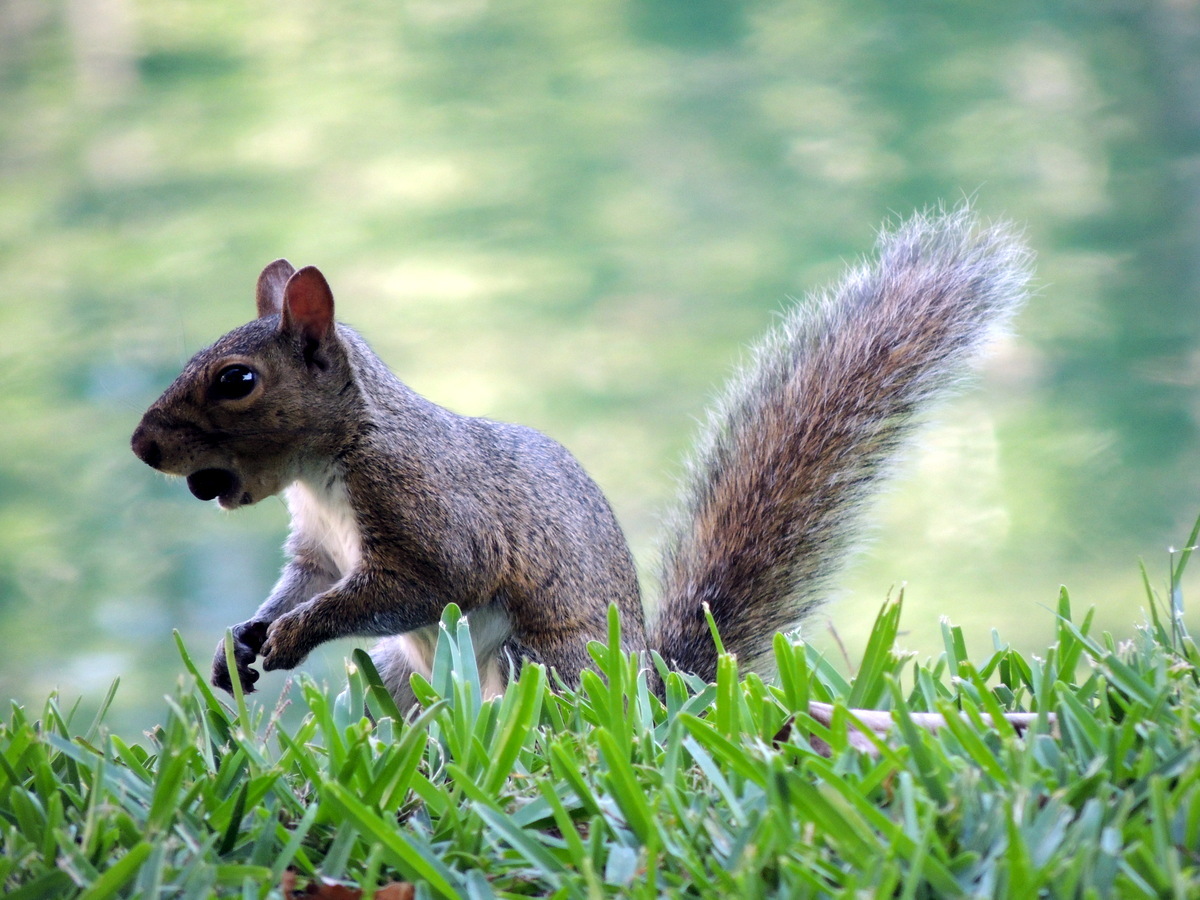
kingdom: Animalia
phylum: Chordata
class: Mammalia
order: Rodentia
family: Sciuridae
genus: Sciurus
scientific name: Sciurus carolinensis
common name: Eastern gray squirrel
